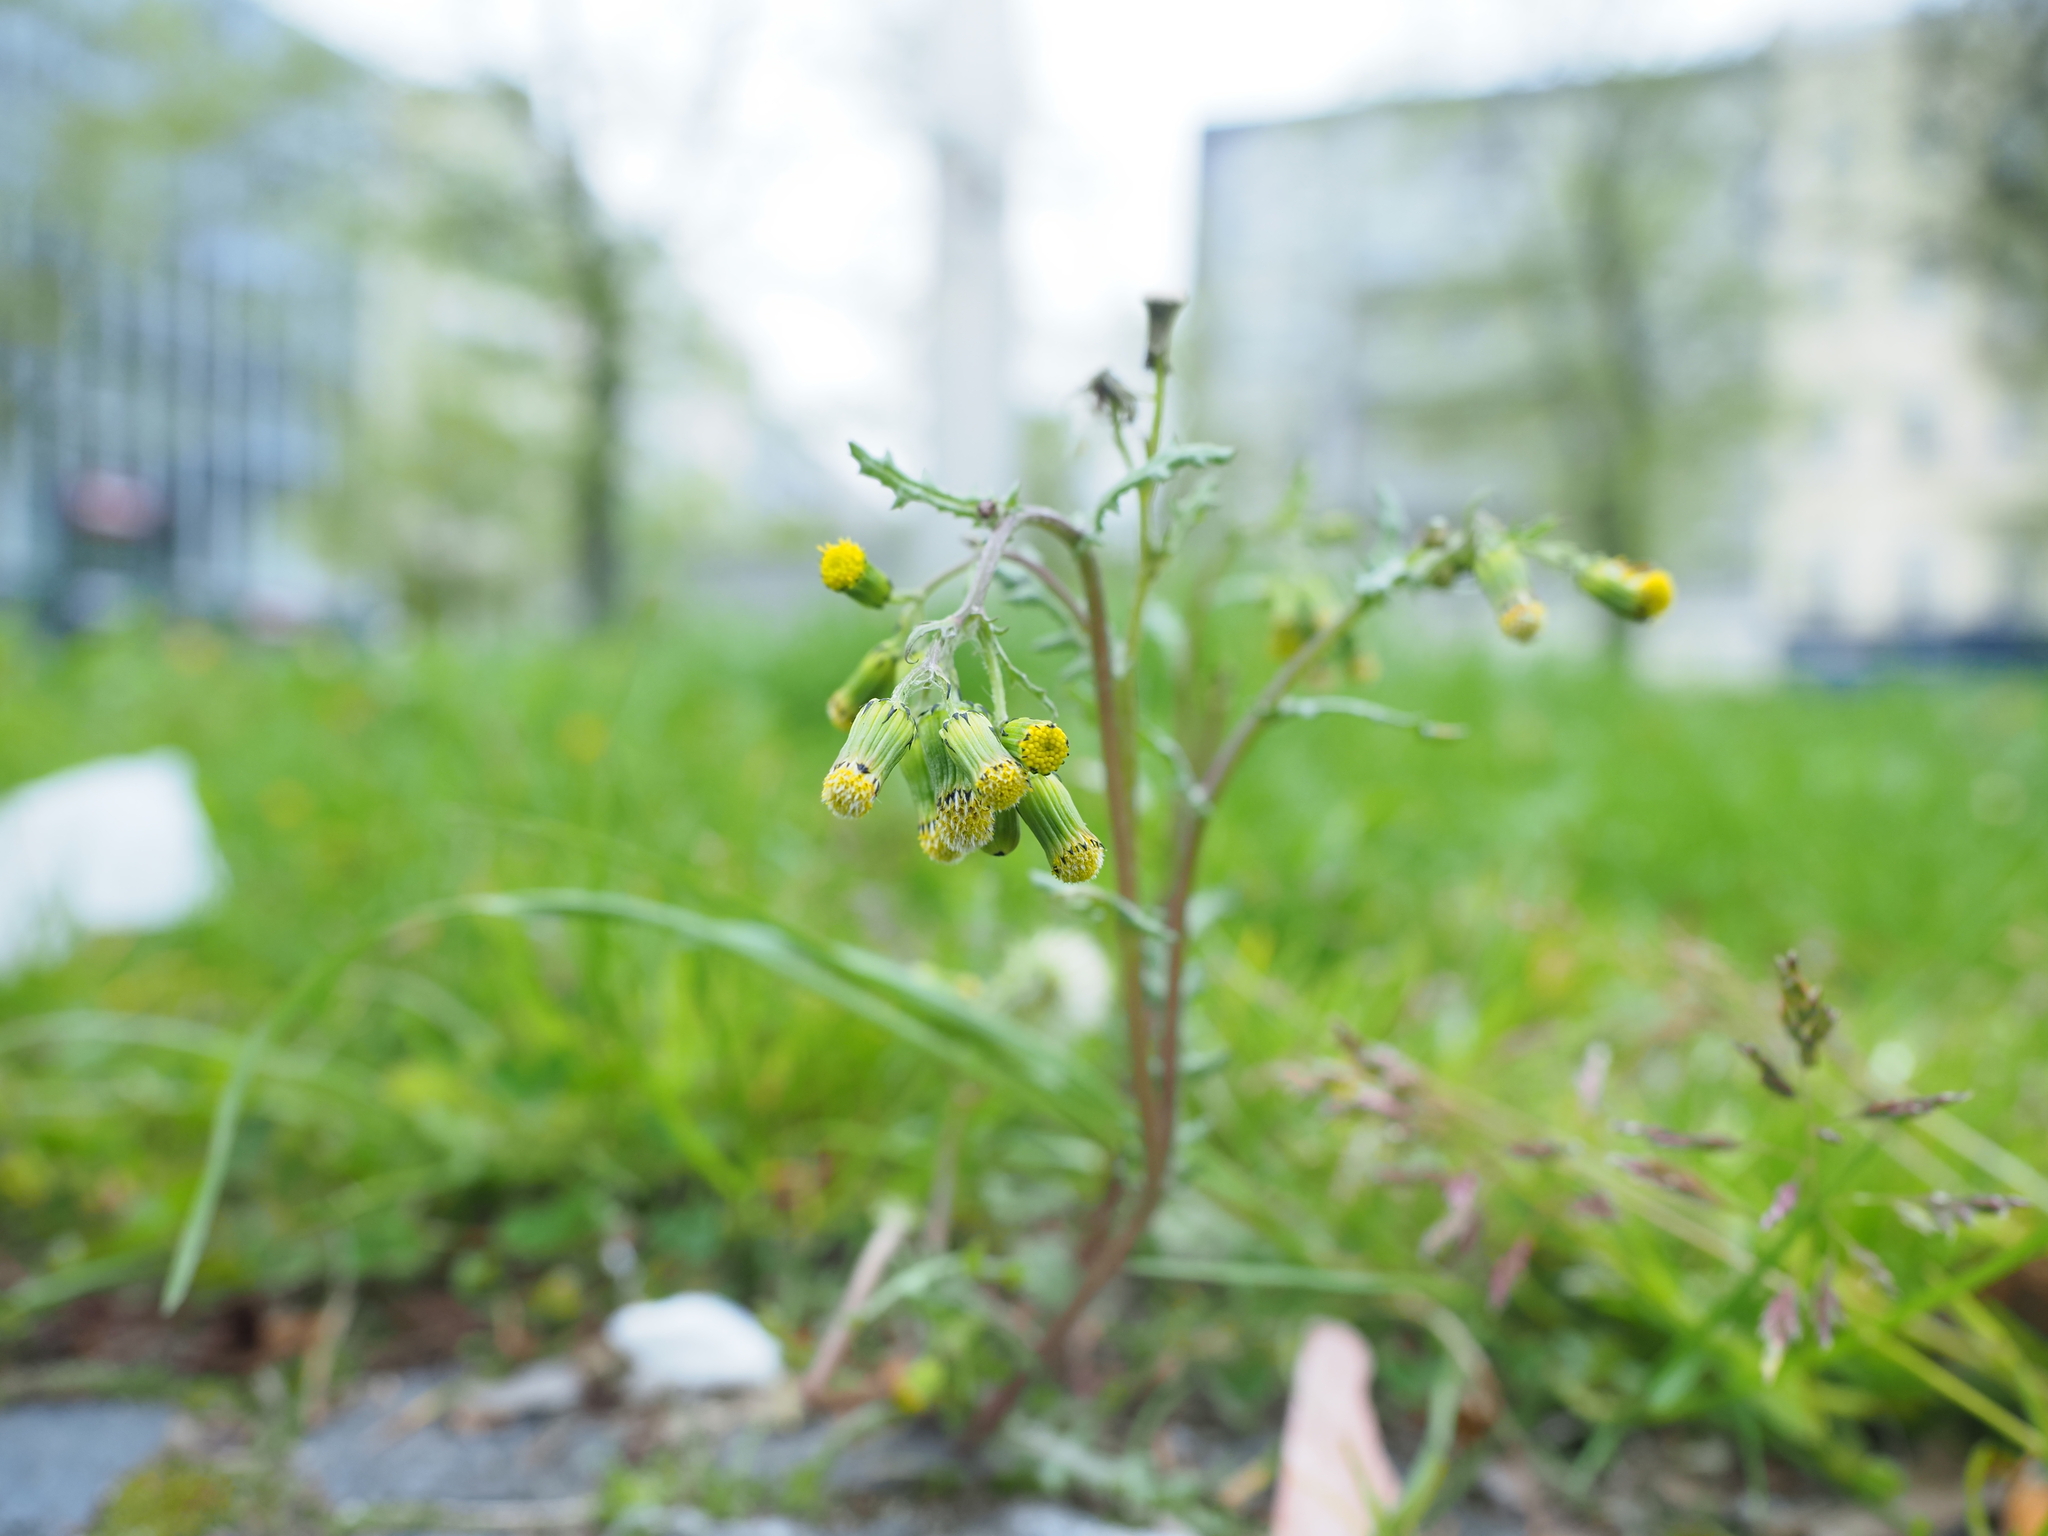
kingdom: Plantae
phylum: Tracheophyta
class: Magnoliopsida
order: Asterales
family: Asteraceae
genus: Senecio
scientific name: Senecio vulgaris
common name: Old-man-in-the-spring
